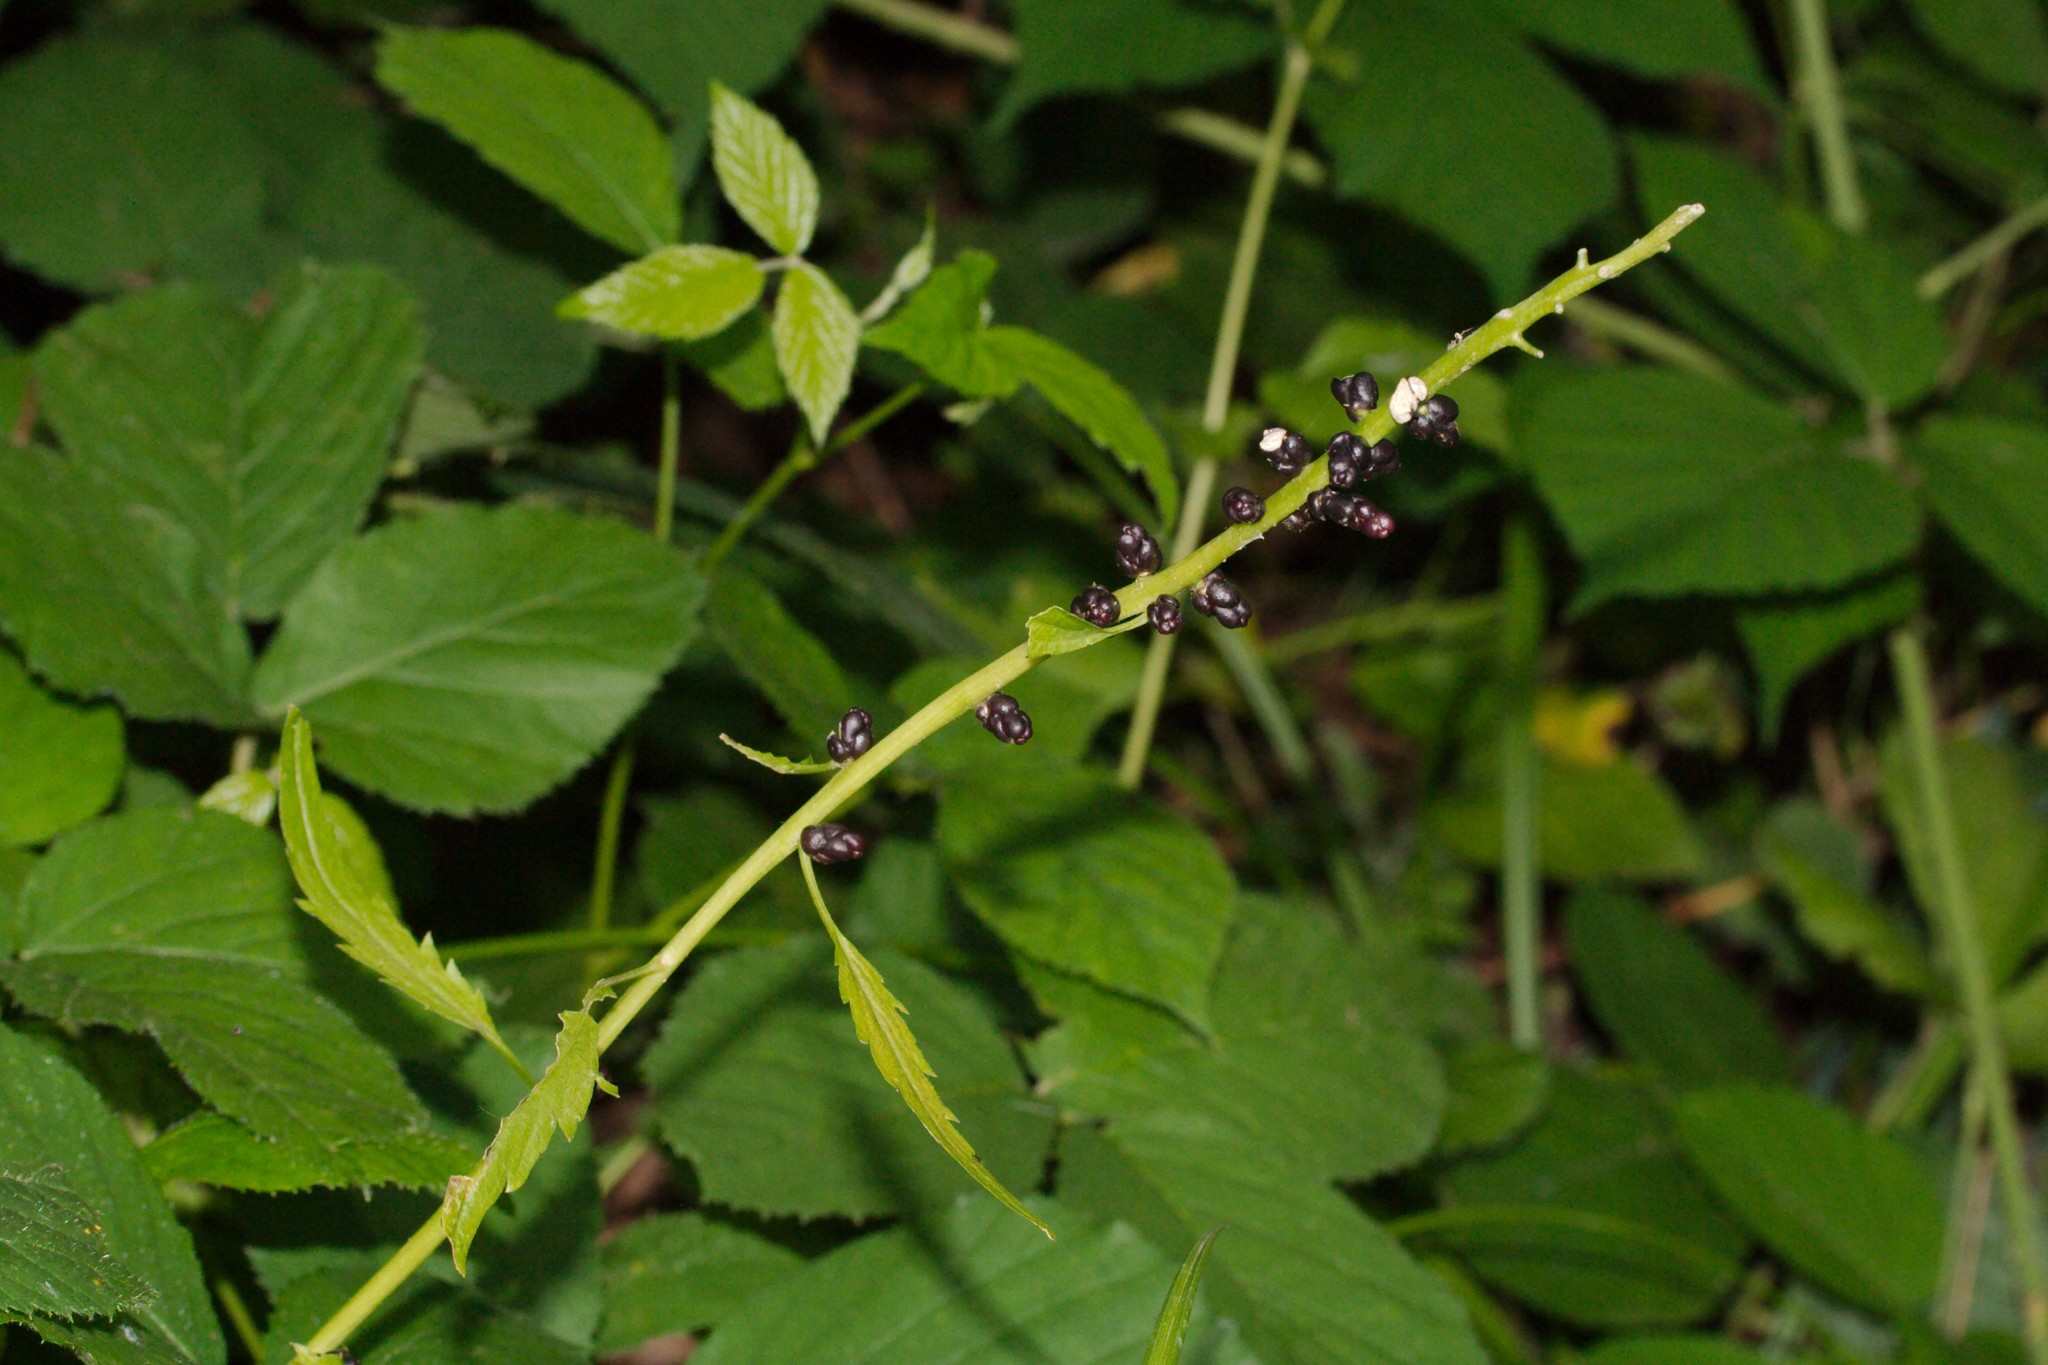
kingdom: Plantae
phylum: Tracheophyta
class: Magnoliopsida
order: Brassicales
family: Brassicaceae
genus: Cardamine
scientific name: Cardamine bulbifera
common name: Coralroot bittercress
